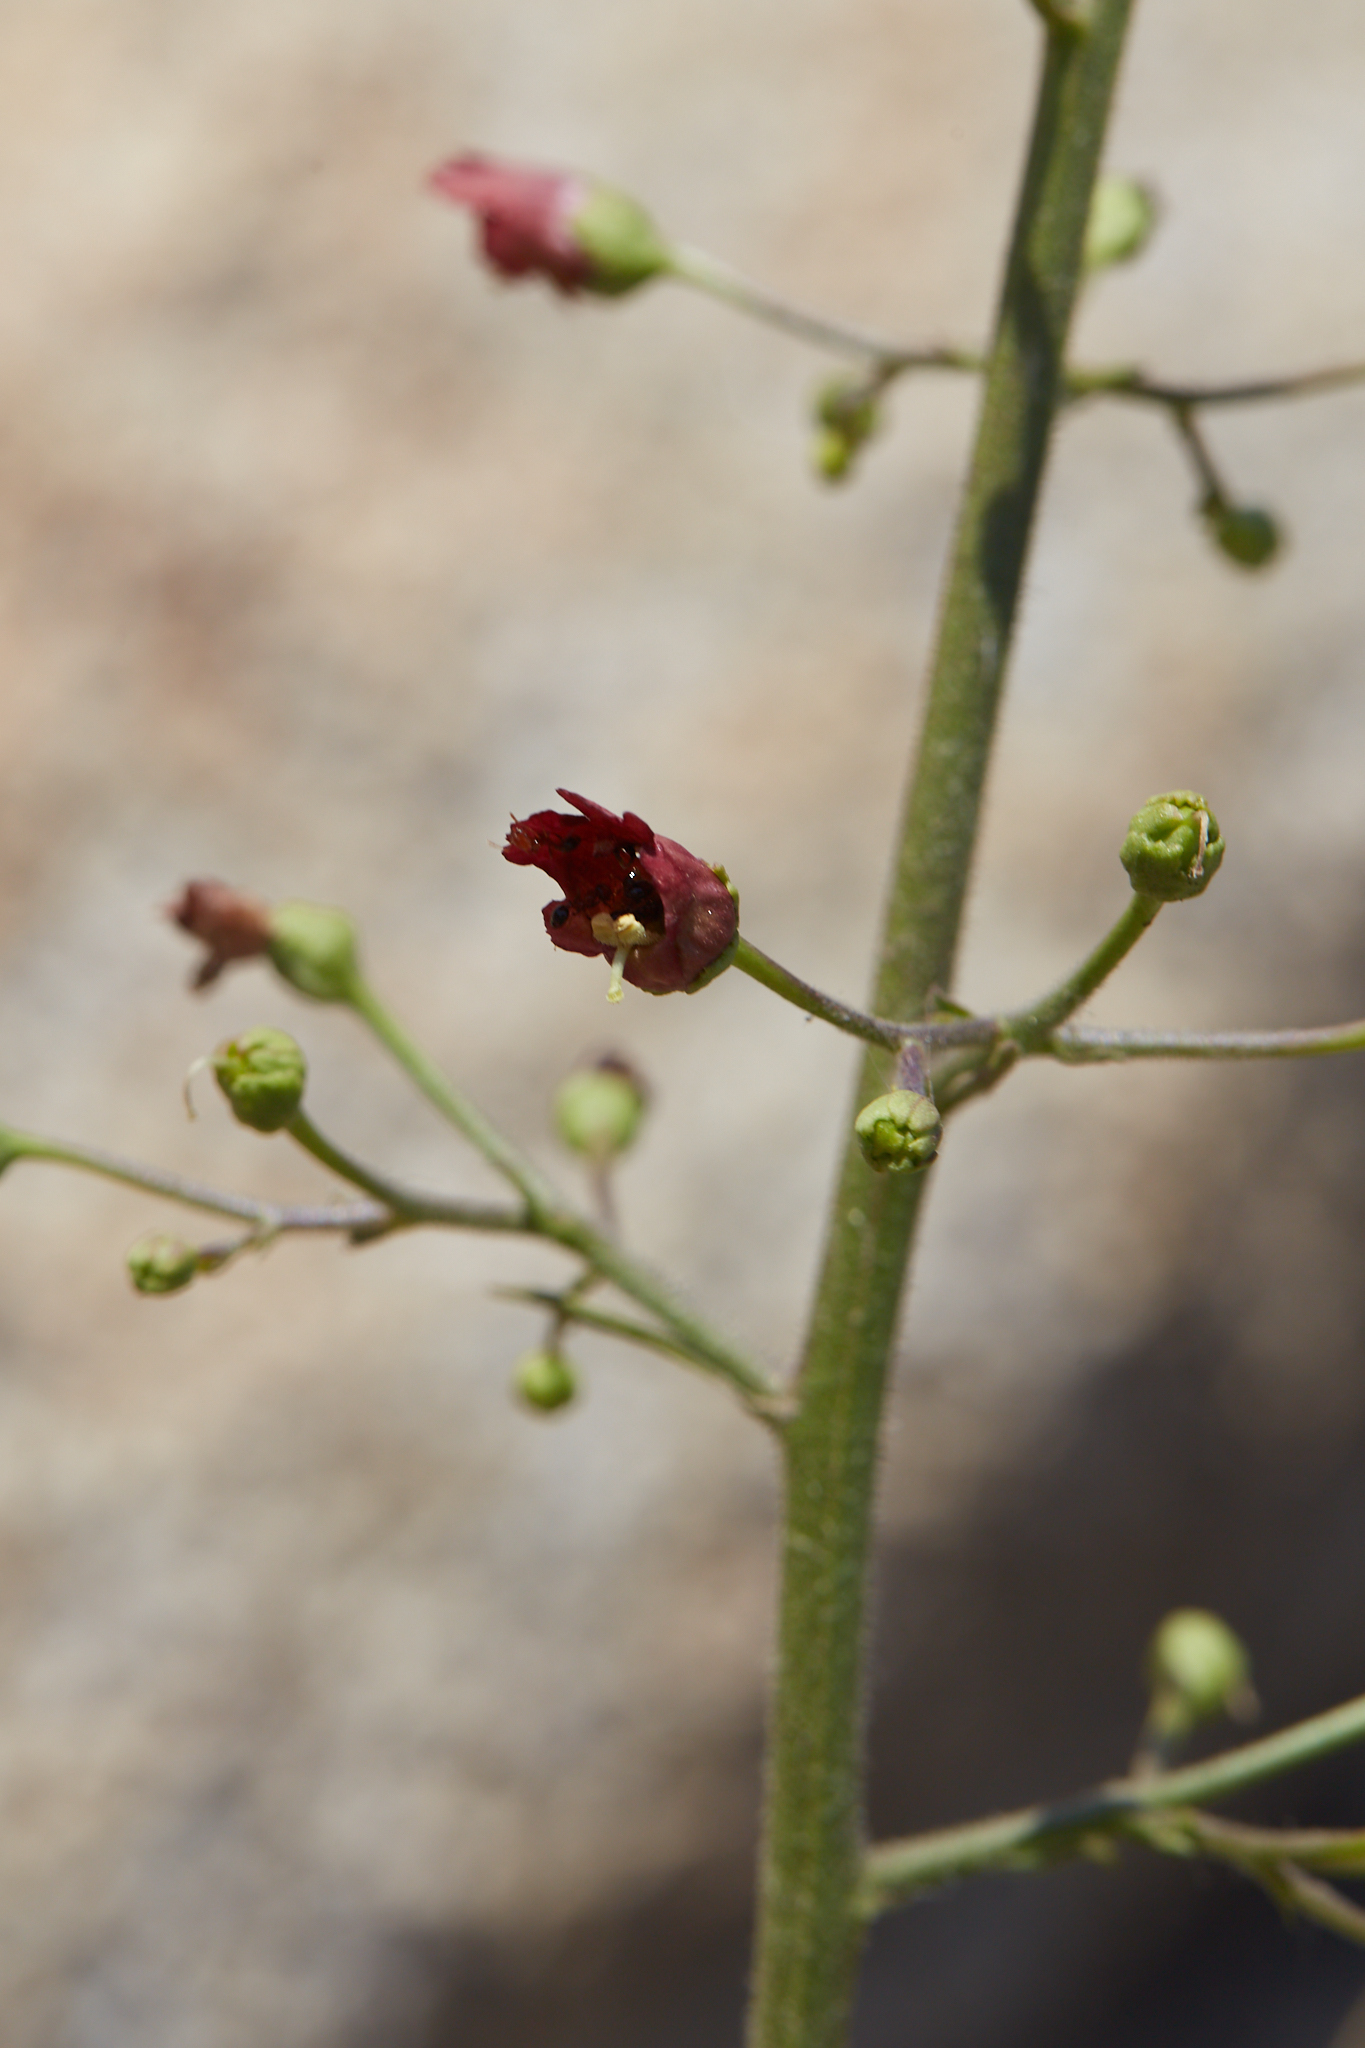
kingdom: Plantae
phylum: Tracheophyta
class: Magnoliopsida
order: Lamiales
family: Scrophulariaceae
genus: Scrophularia
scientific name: Scrophularia californica
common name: California figwort
